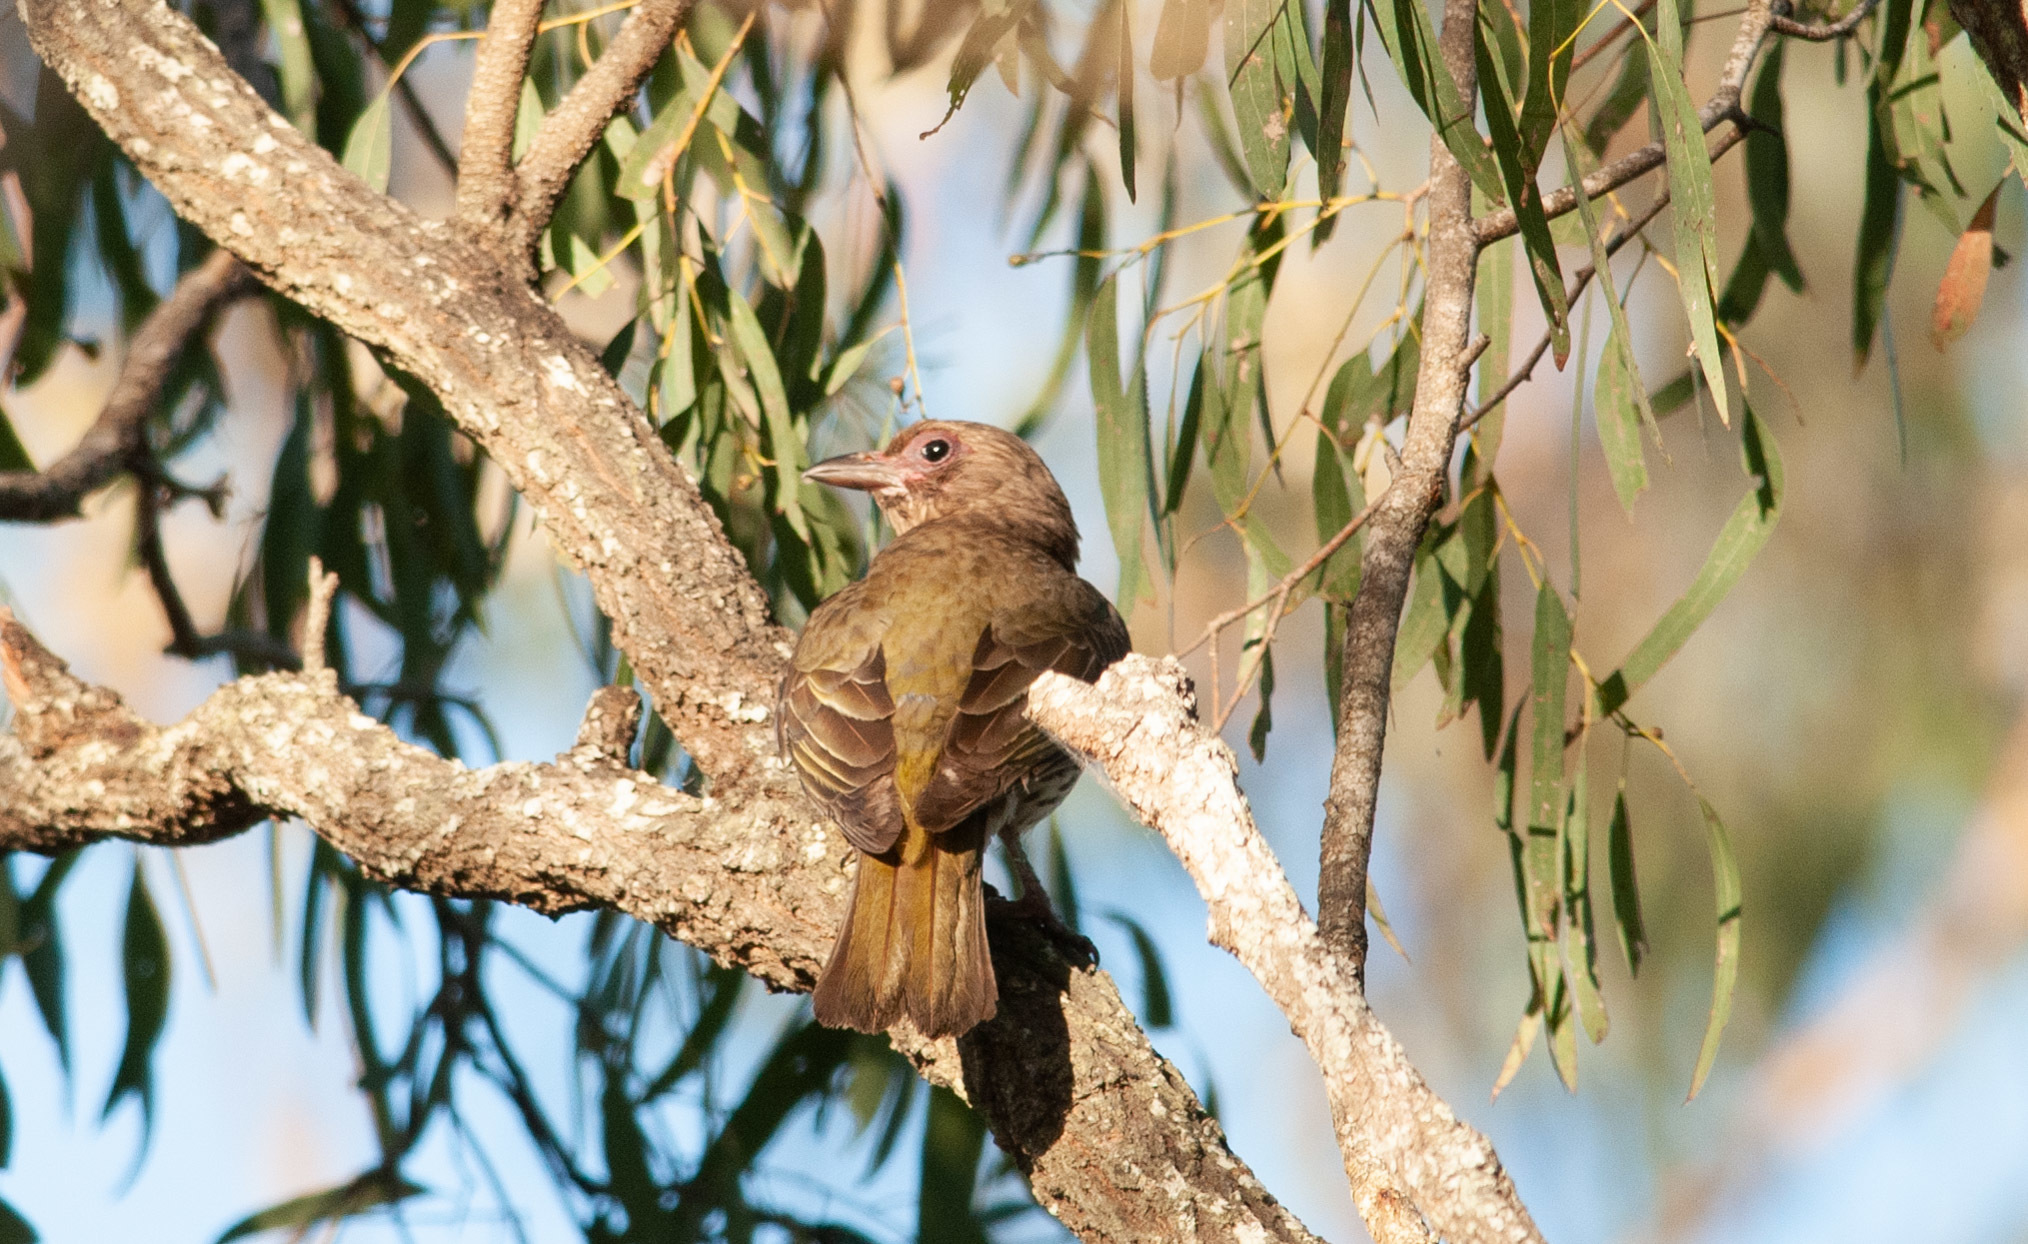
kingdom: Animalia
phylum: Chordata
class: Aves
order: Passeriformes
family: Oriolidae
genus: Sphecotheres
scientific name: Sphecotheres vieilloti
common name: Australasian figbird
